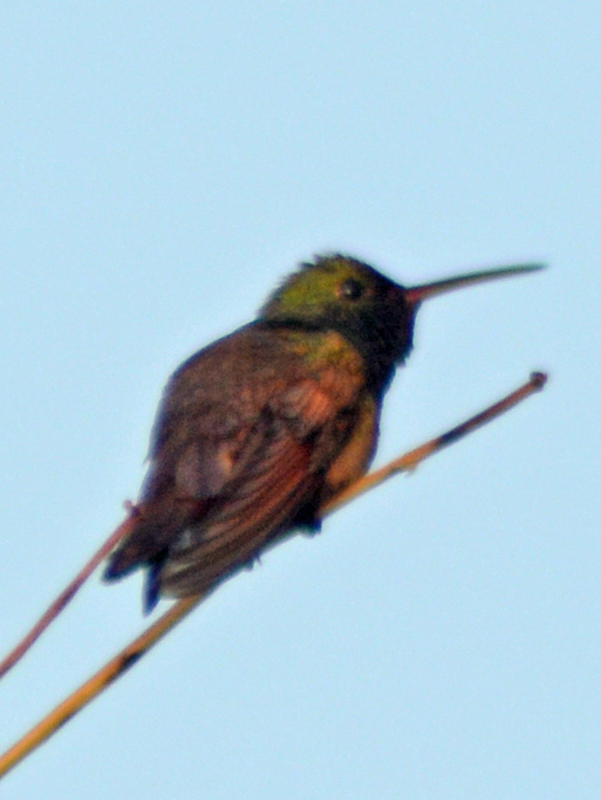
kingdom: Animalia
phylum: Chordata
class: Aves
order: Apodiformes
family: Trochilidae
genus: Saucerottia
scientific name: Saucerottia beryllina
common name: Berylline hummingbird
